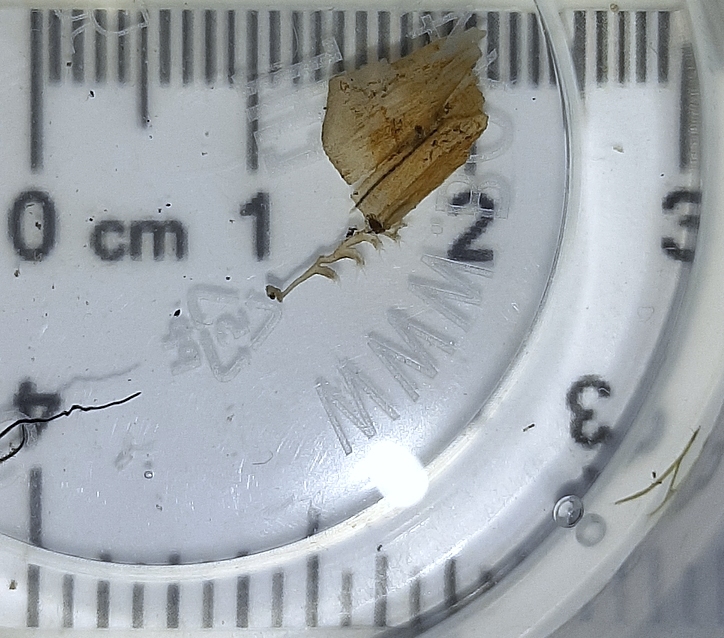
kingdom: Animalia
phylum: Bryozoa
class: Phylactolaemata
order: Plumatellida
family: Plumatellidae
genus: Plumatella
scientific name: Plumatella repens
